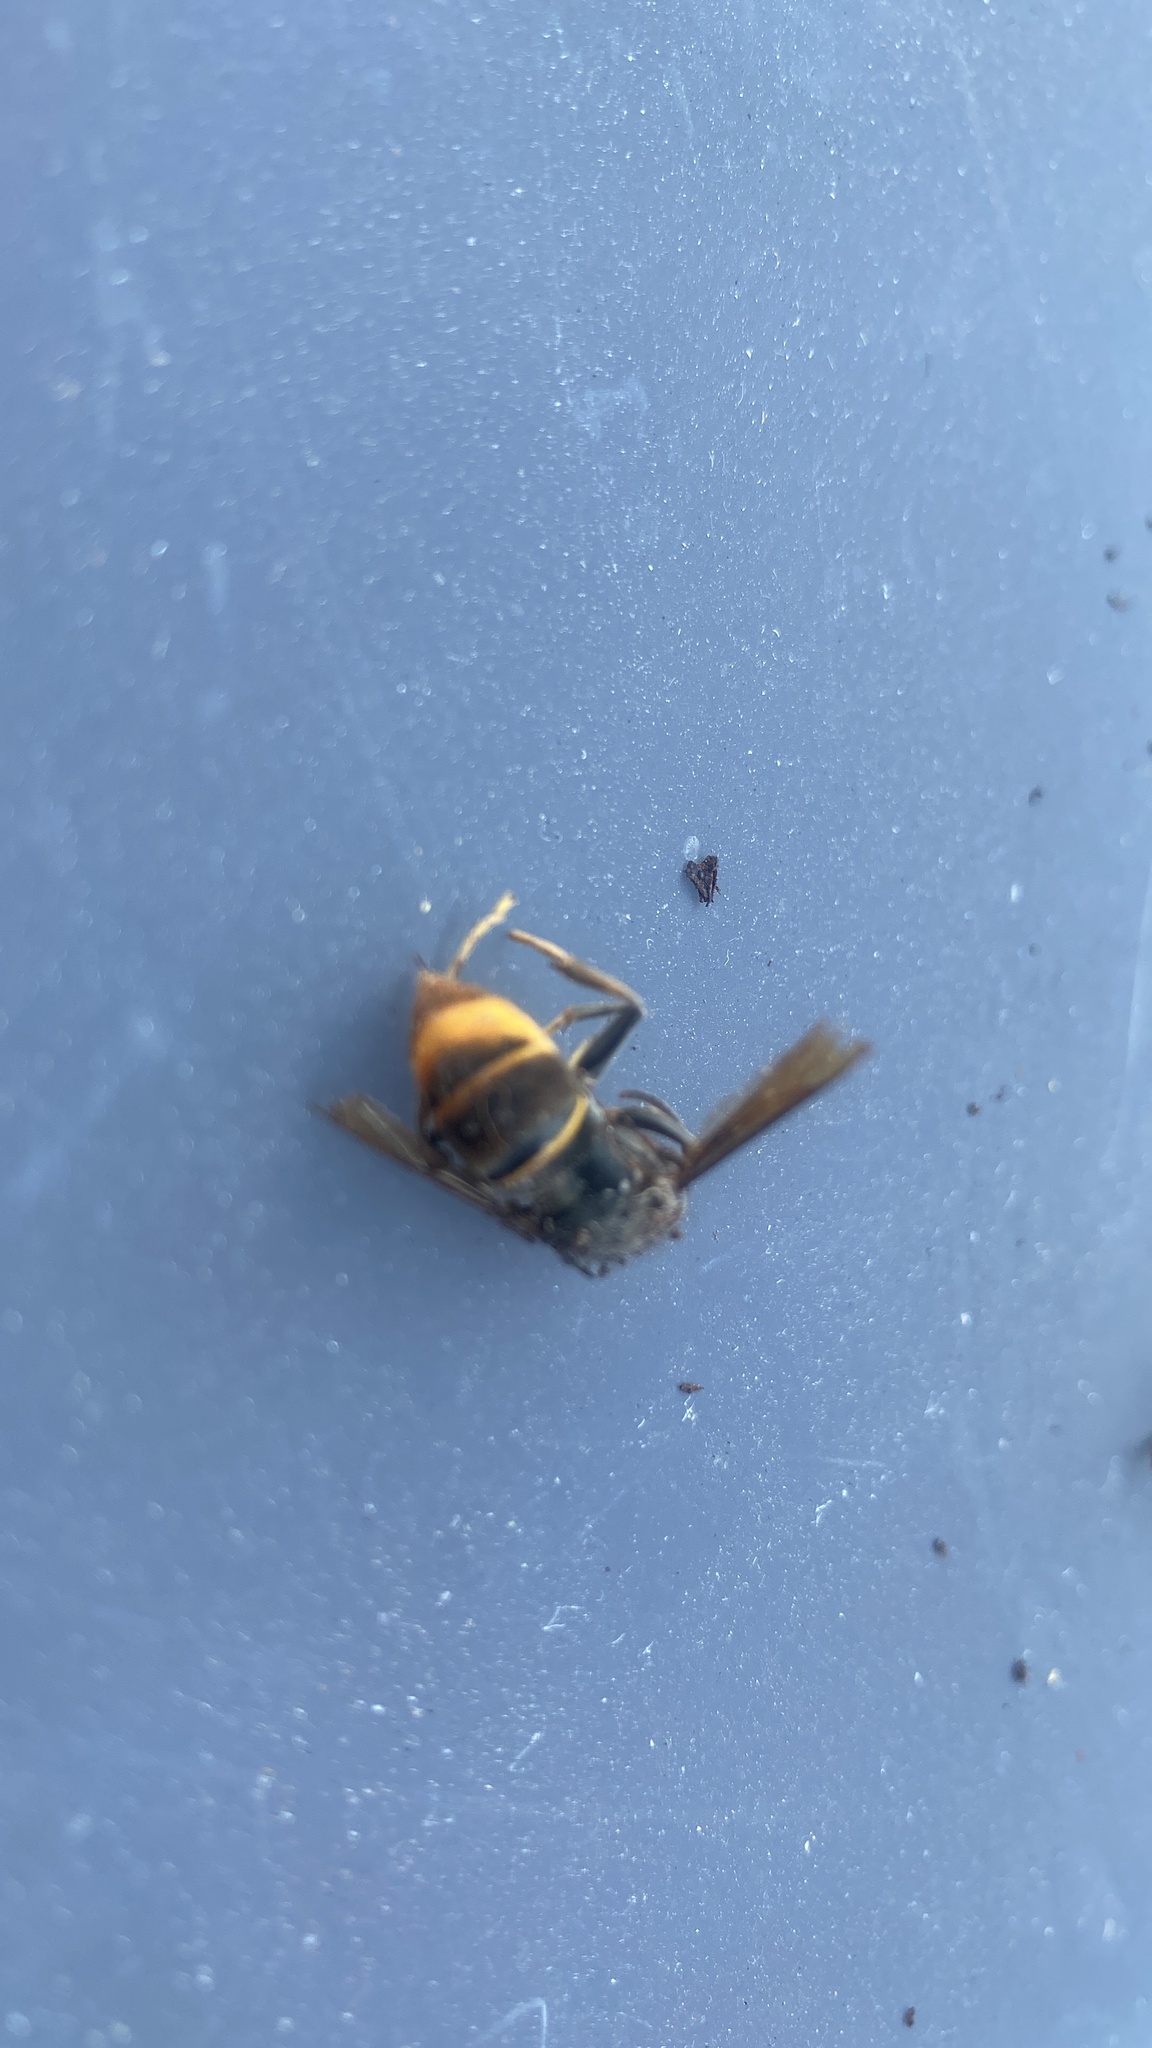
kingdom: Animalia
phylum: Arthropoda
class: Insecta
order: Hymenoptera
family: Vespidae
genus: Vespa
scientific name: Vespa velutina
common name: Asian hornet
